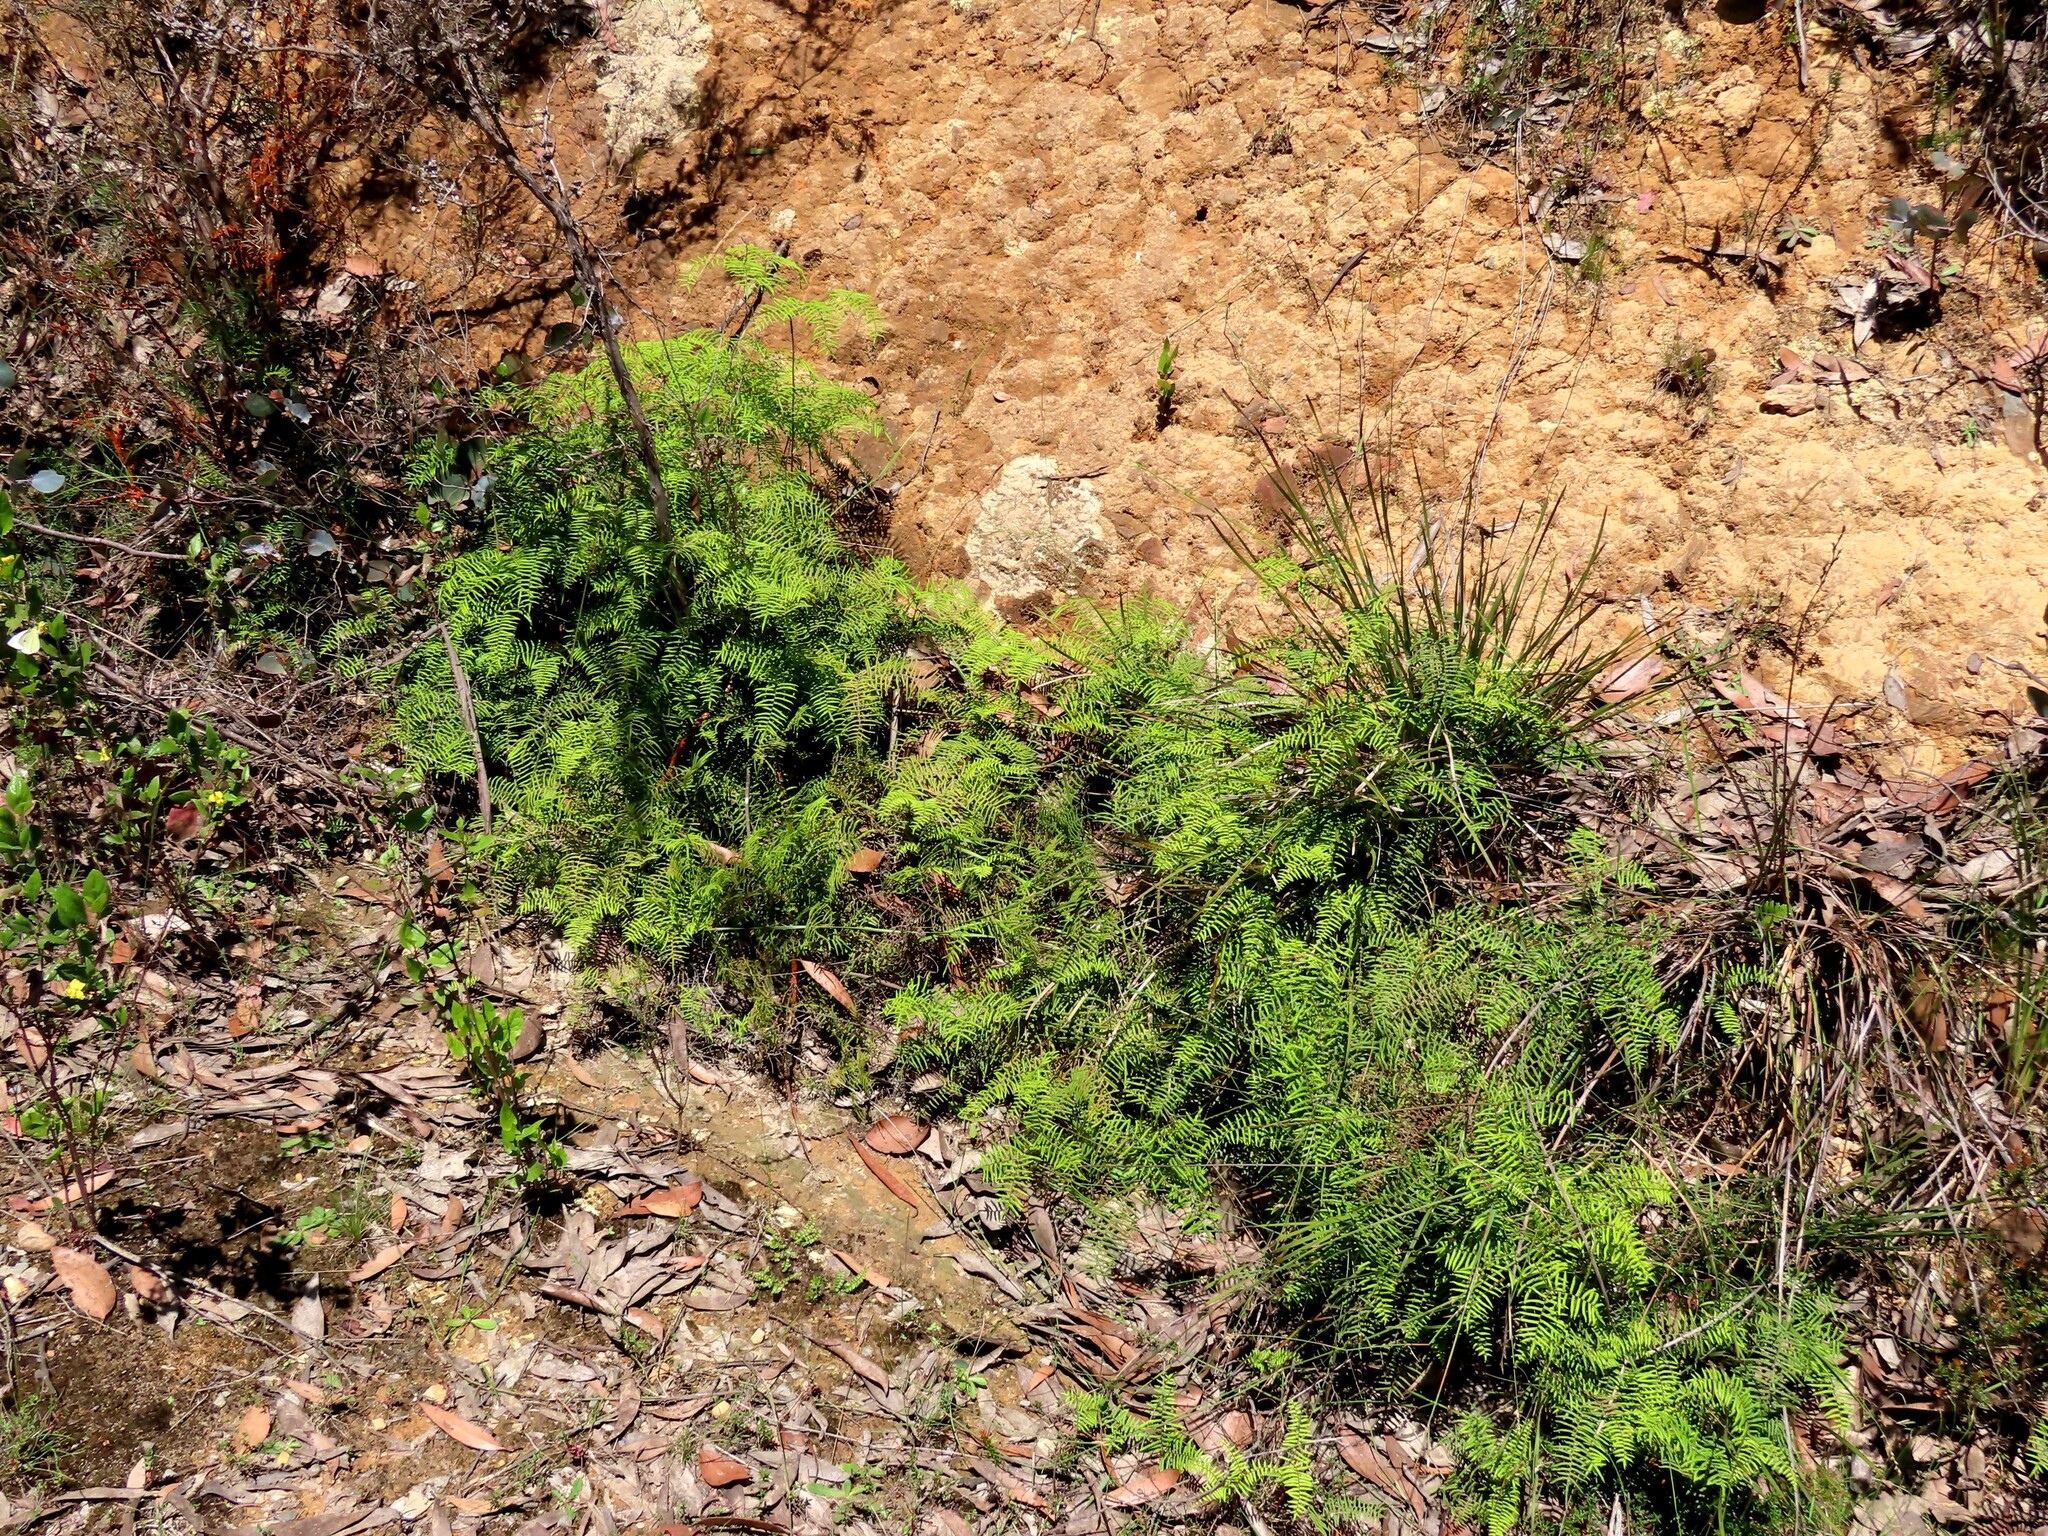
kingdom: Plantae
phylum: Tracheophyta
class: Polypodiopsida
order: Gleicheniales
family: Gleicheniaceae
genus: Gleichenia
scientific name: Gleichenia microphylla
